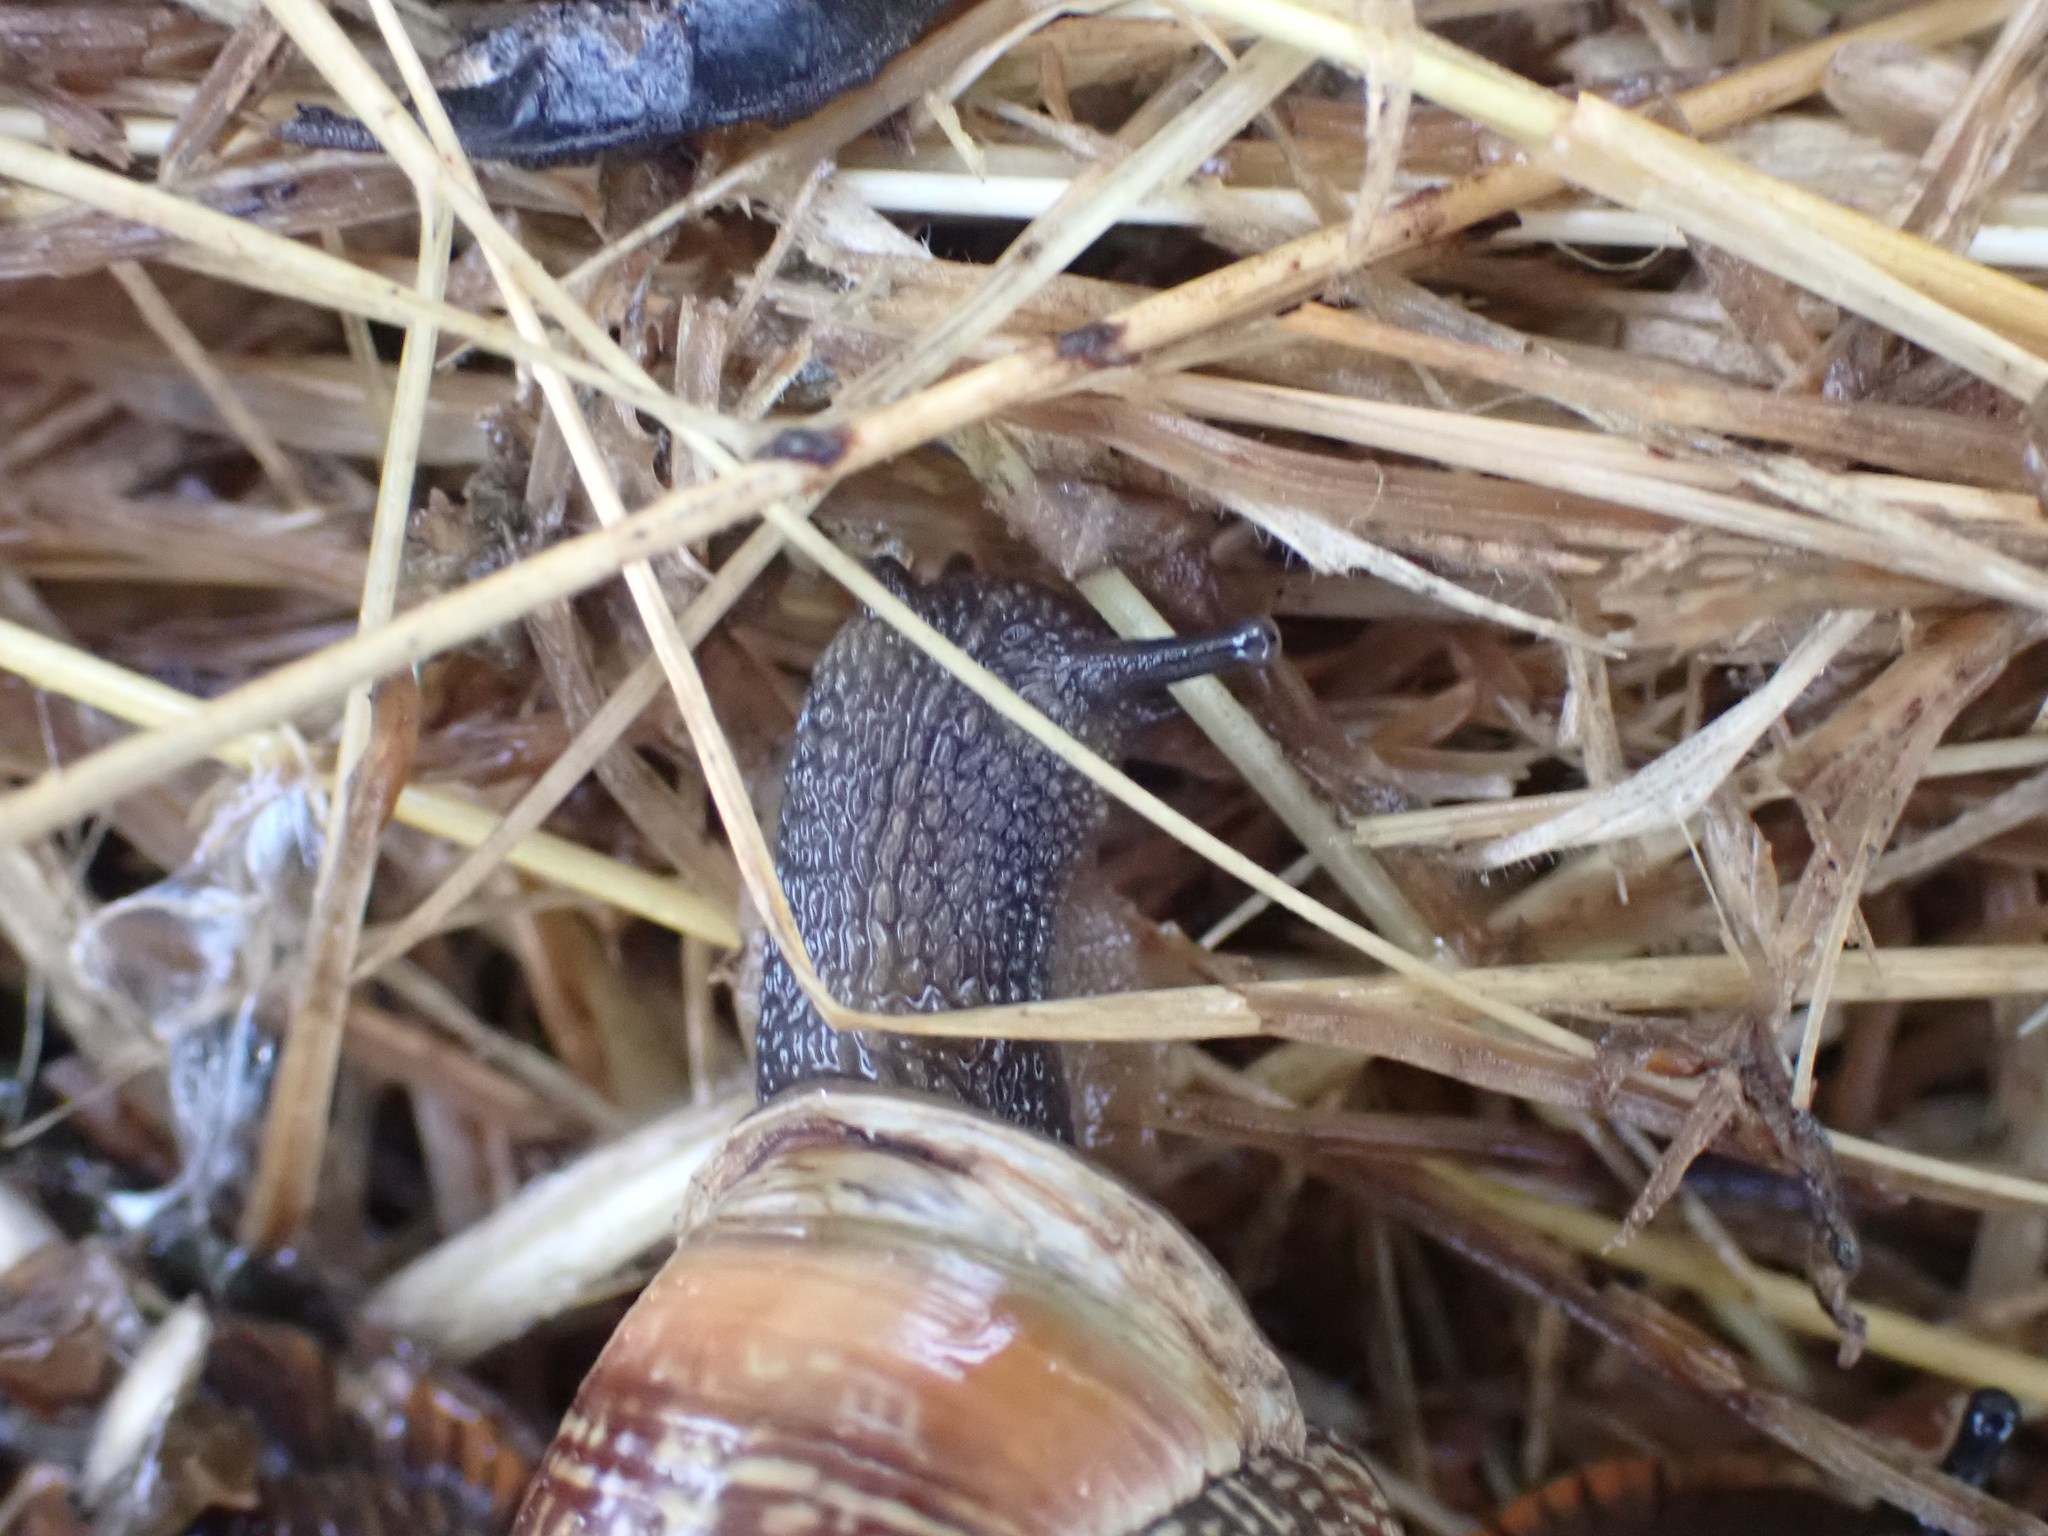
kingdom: Animalia
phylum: Mollusca
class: Gastropoda
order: Stylommatophora
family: Helicidae
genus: Arianta
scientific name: Arianta arbustorum
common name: Copse snail
